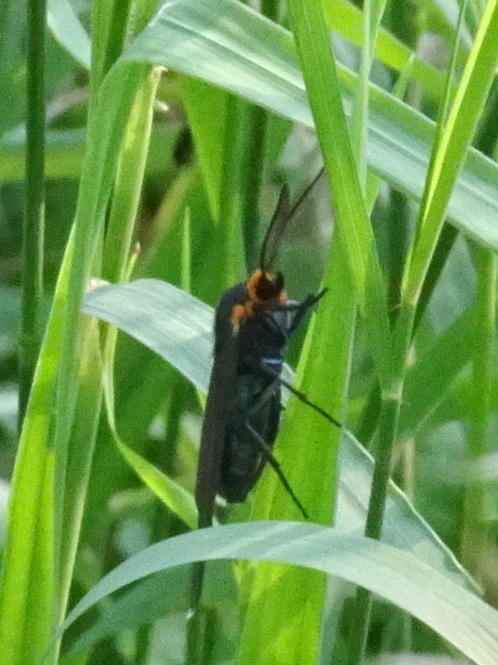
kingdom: Animalia
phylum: Arthropoda
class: Insecta
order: Lepidoptera
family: Erebidae
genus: Ctenucha
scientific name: Ctenucha virginica
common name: Virginia ctenucha moth
